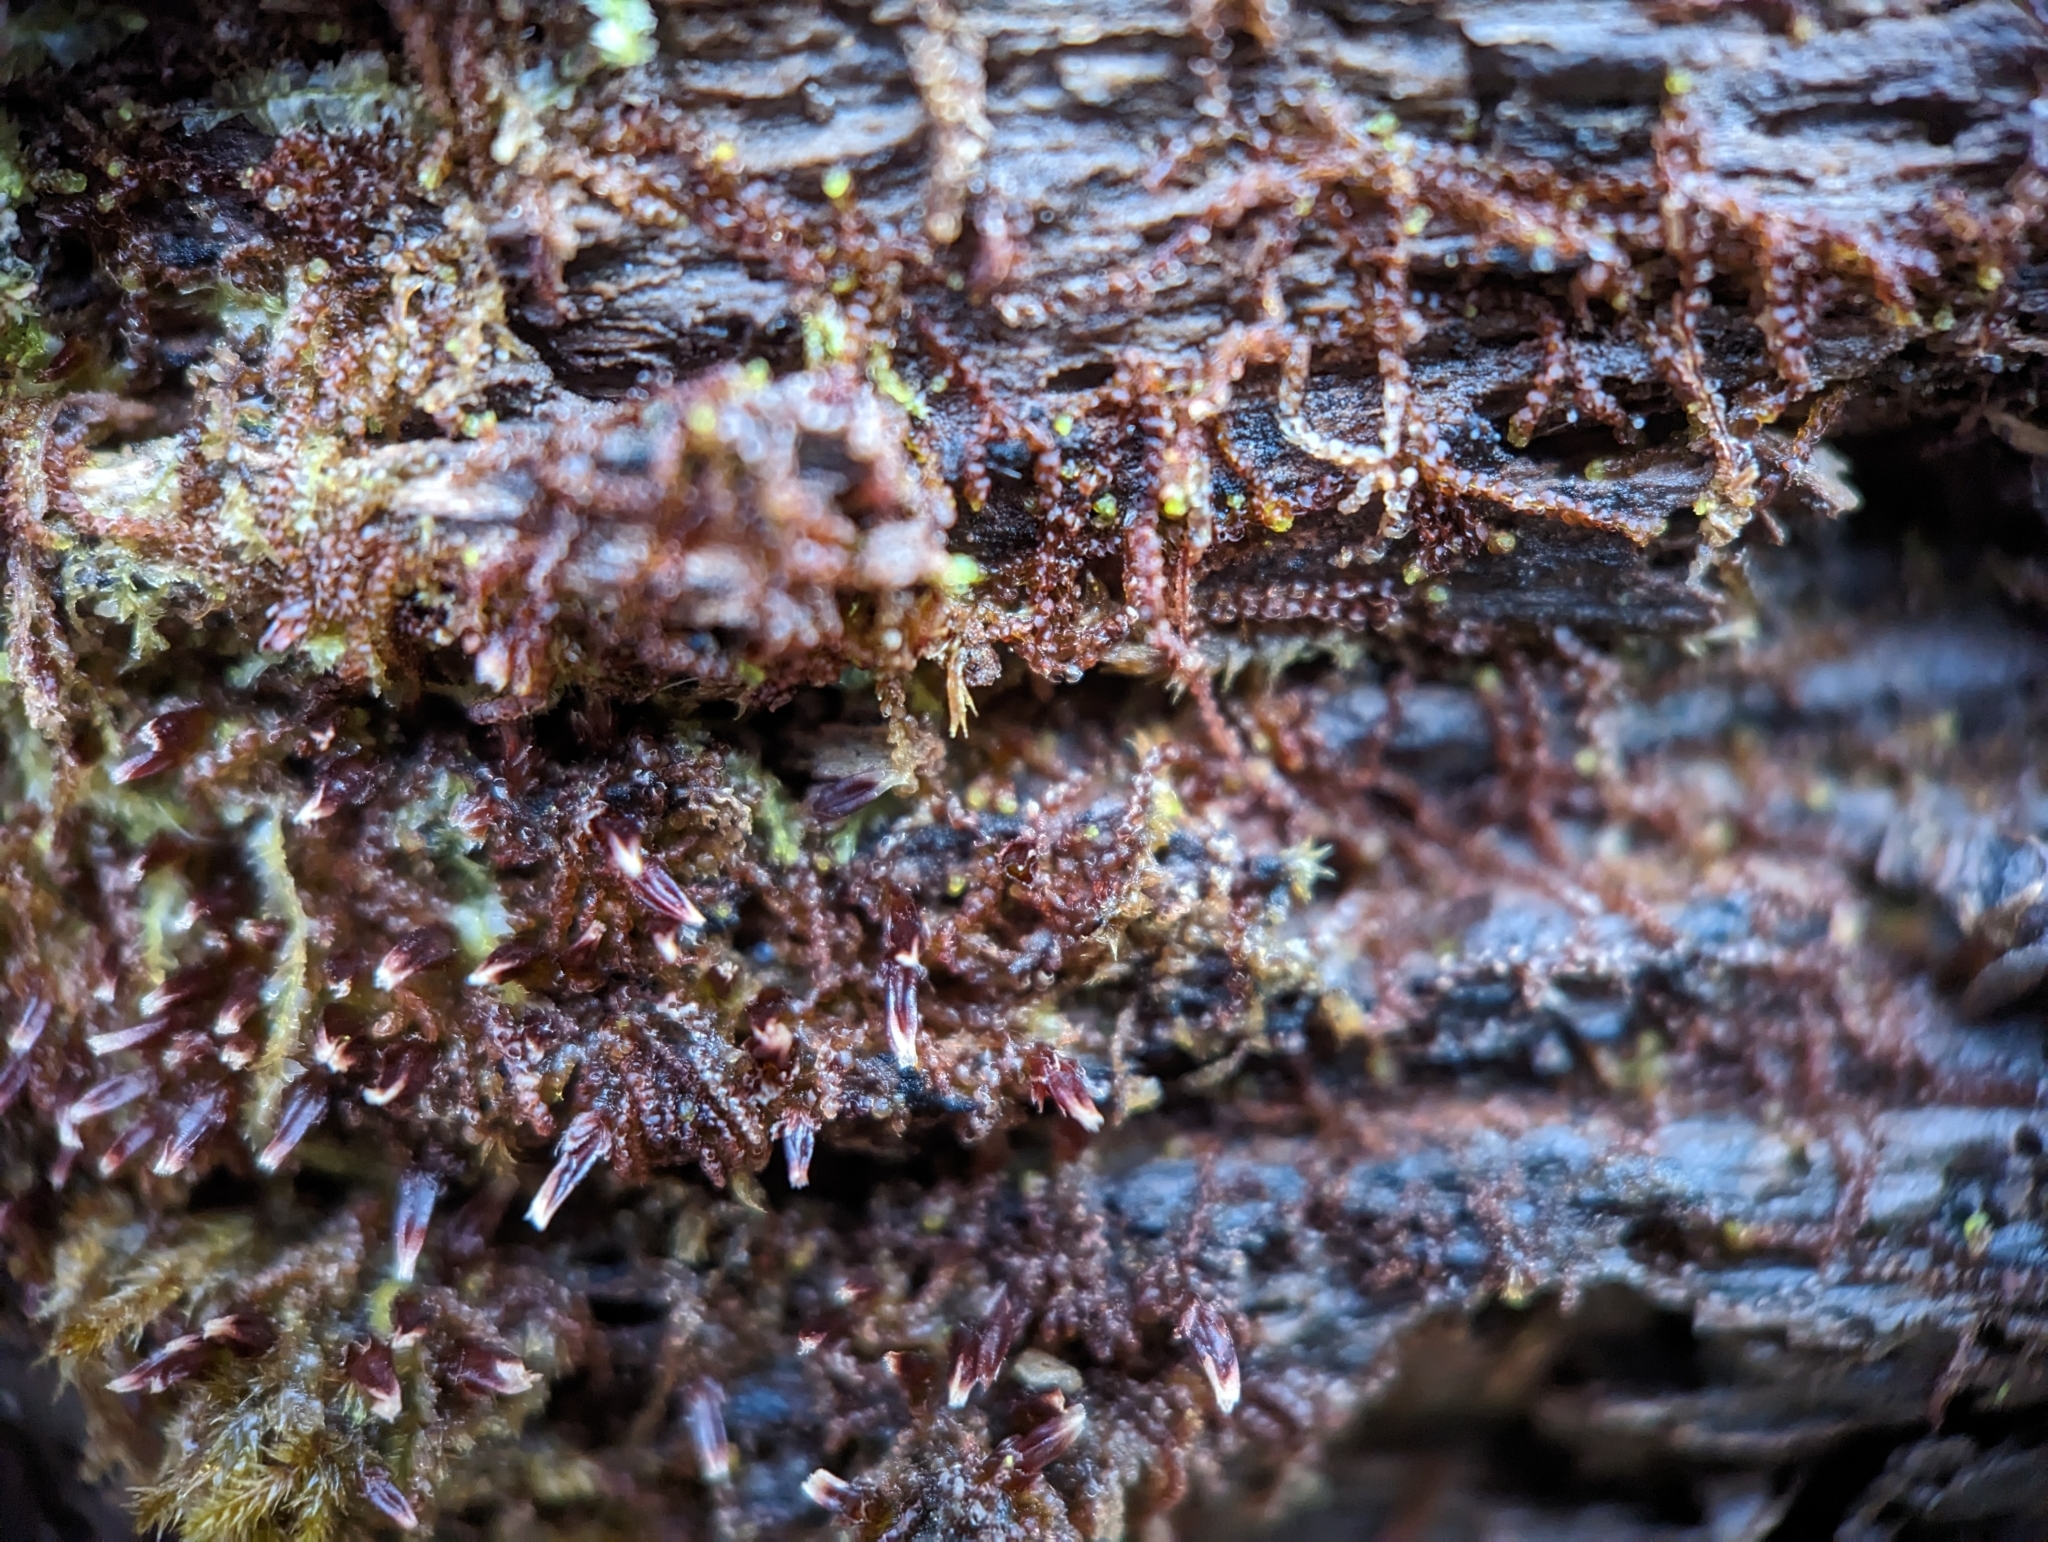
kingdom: Plantae
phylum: Marchantiophyta
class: Jungermanniopsida
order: Jungermanniales
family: Cephaloziaceae
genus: Nowellia
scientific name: Nowellia curvifolia
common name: Wood rustwort
